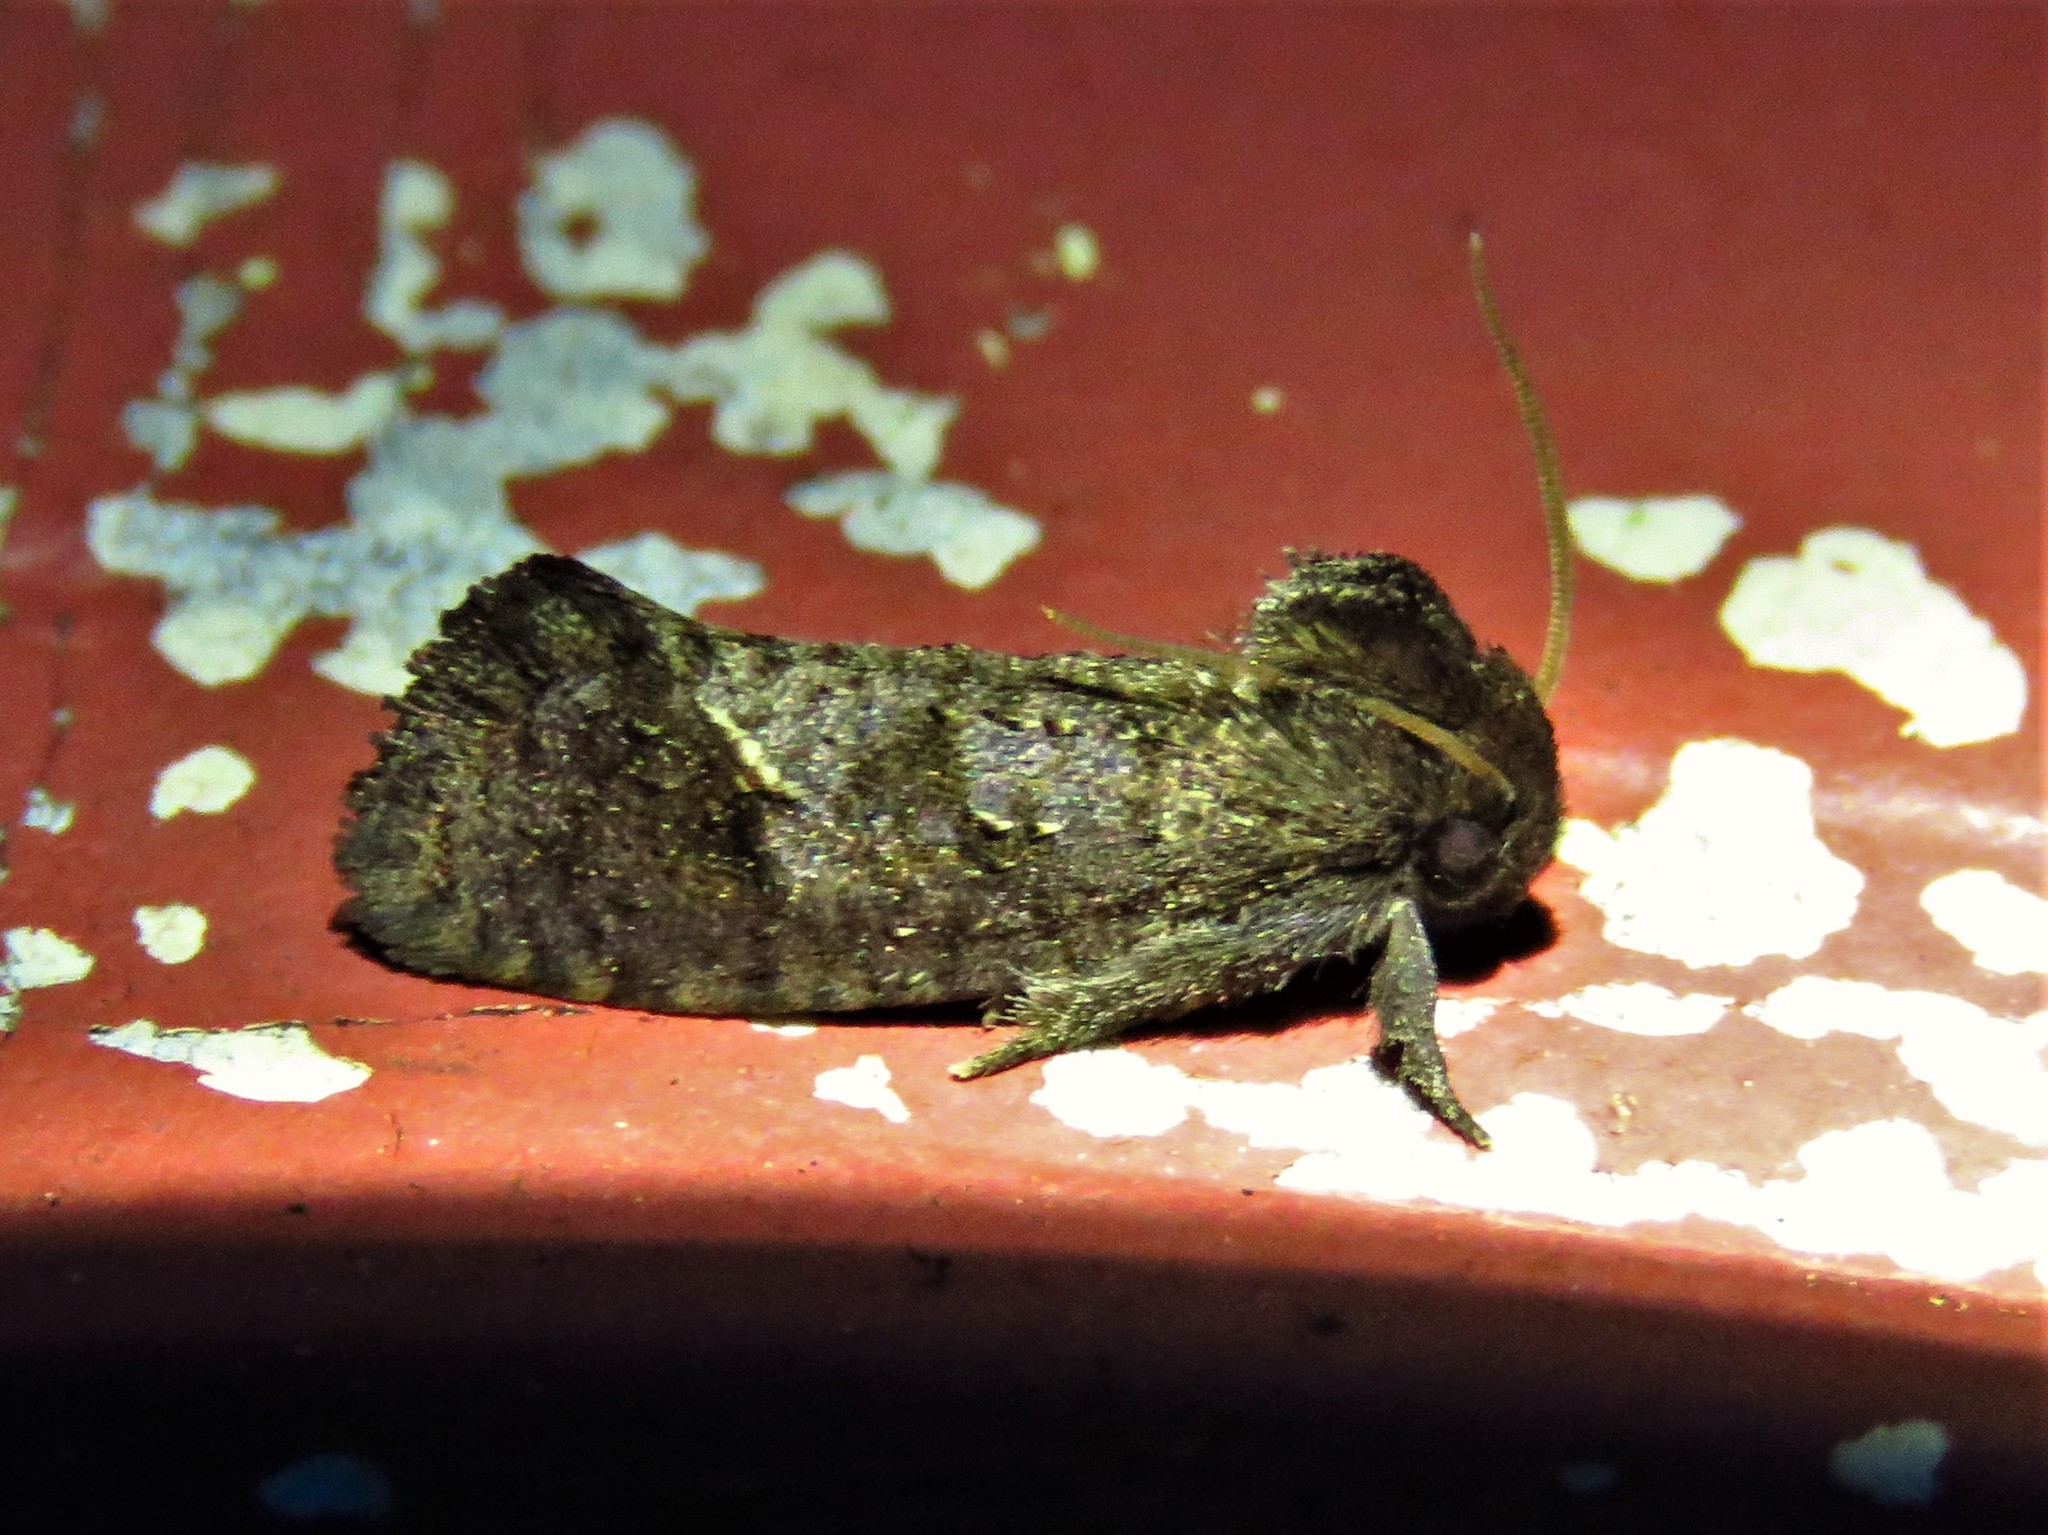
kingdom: Animalia
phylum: Arthropoda
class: Insecta
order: Lepidoptera
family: Tineidae
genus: Acrolophus
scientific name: Acrolophus texanella
